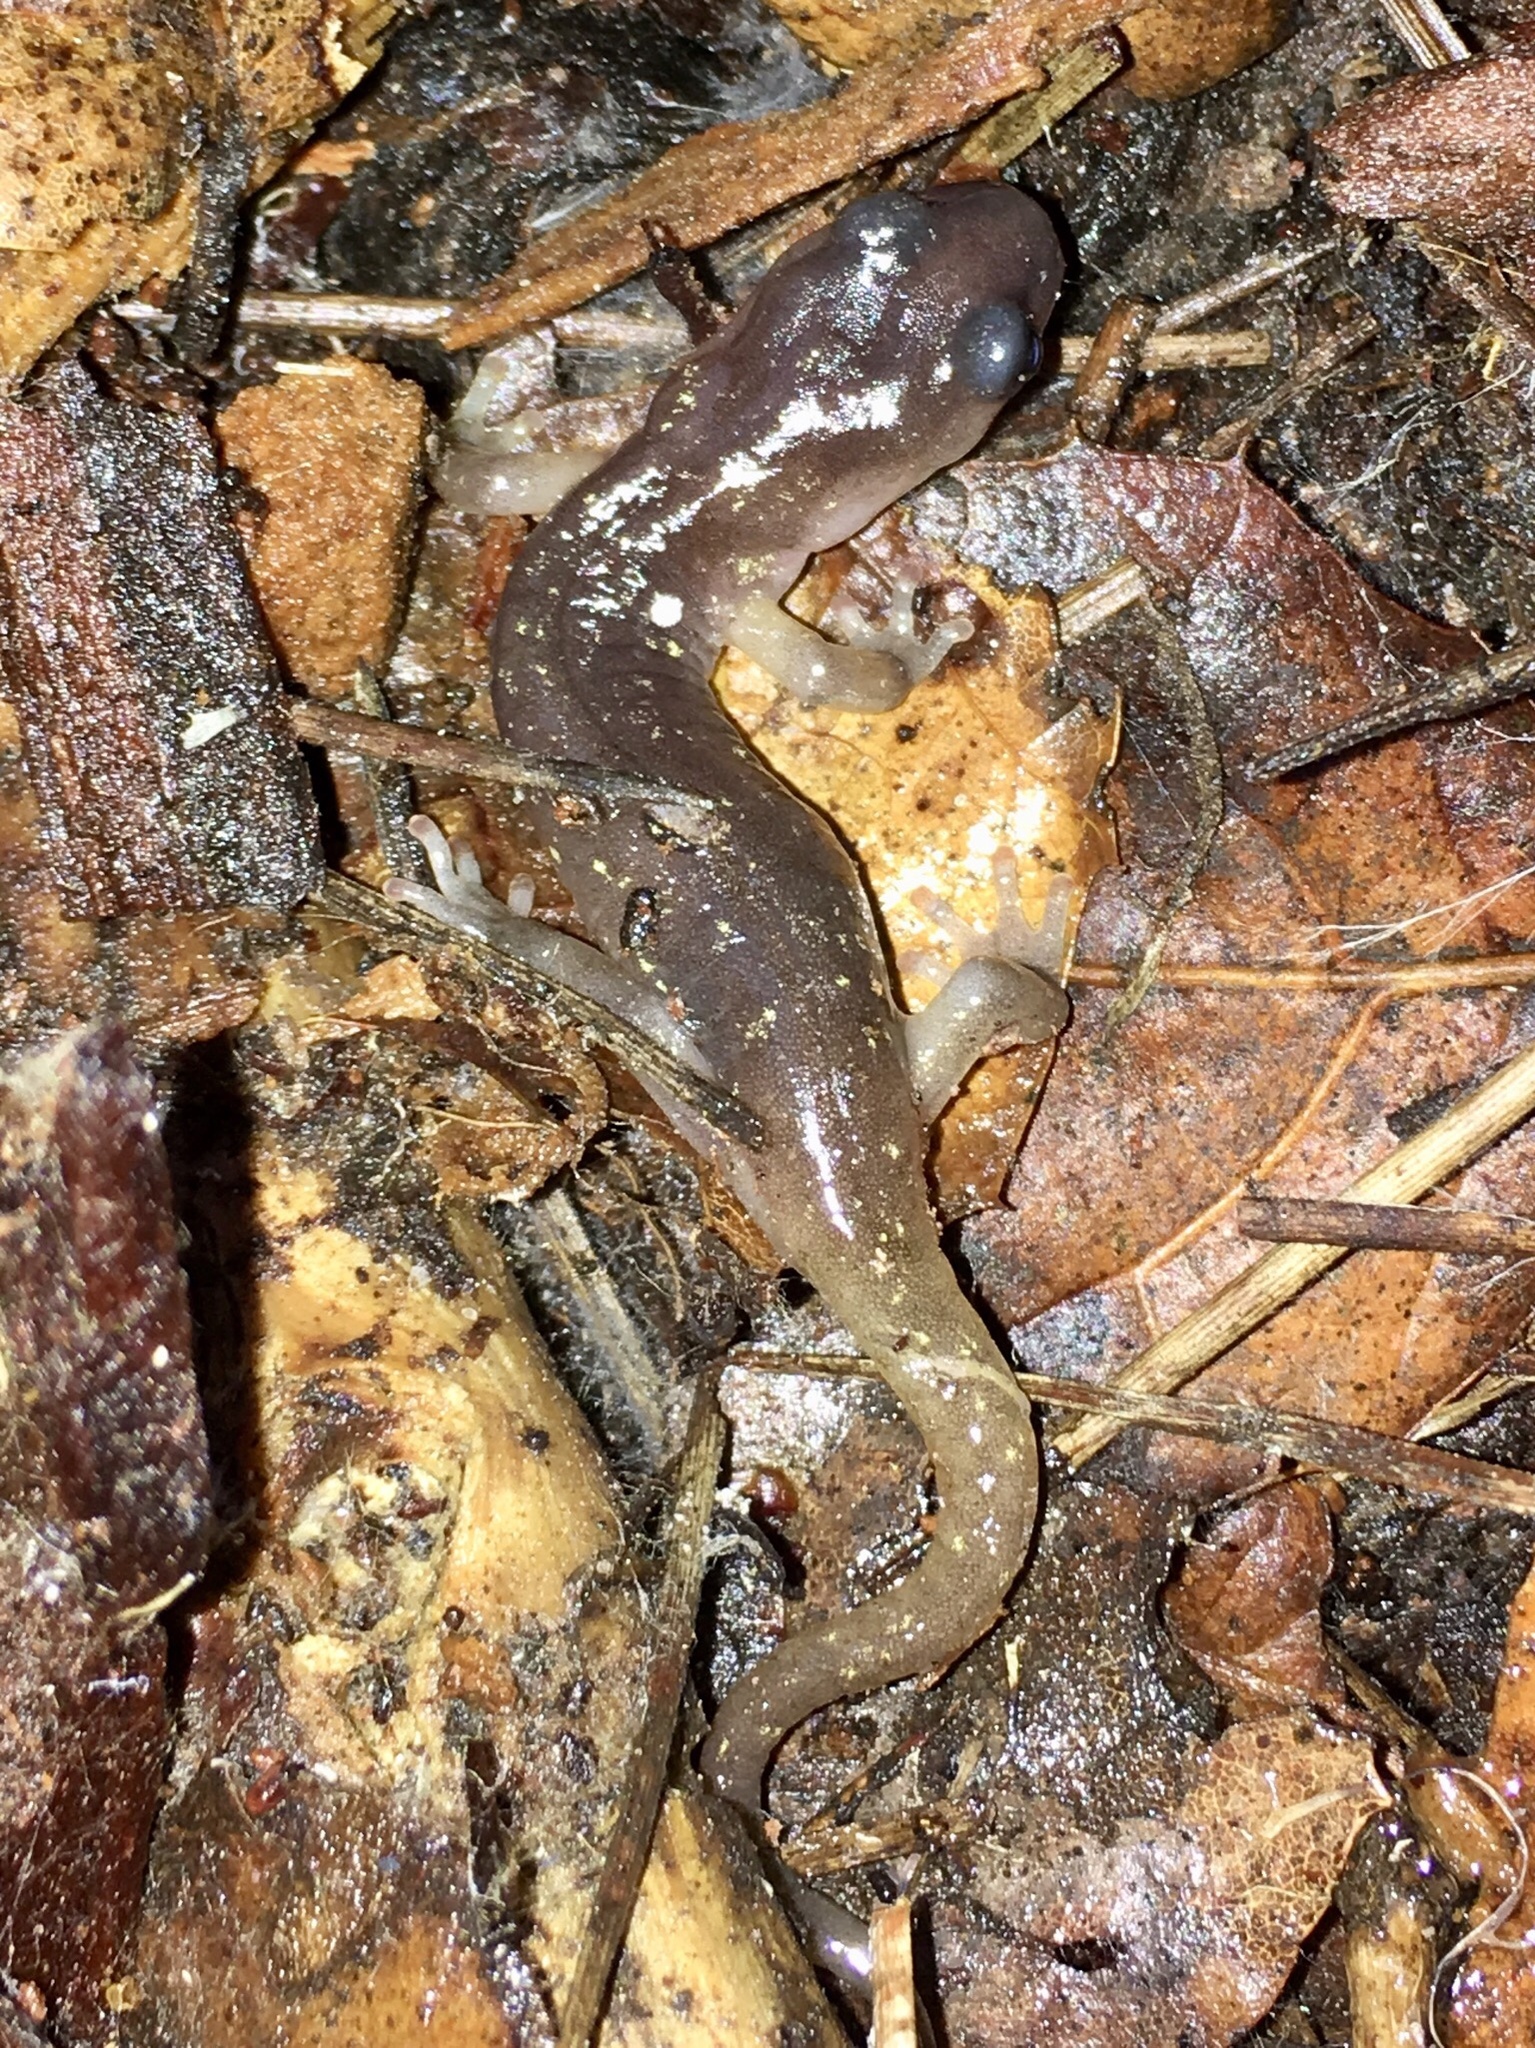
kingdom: Animalia
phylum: Chordata
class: Amphibia
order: Caudata
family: Plethodontidae
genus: Aneides
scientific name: Aneides lugubris
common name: Arboreal salamander
